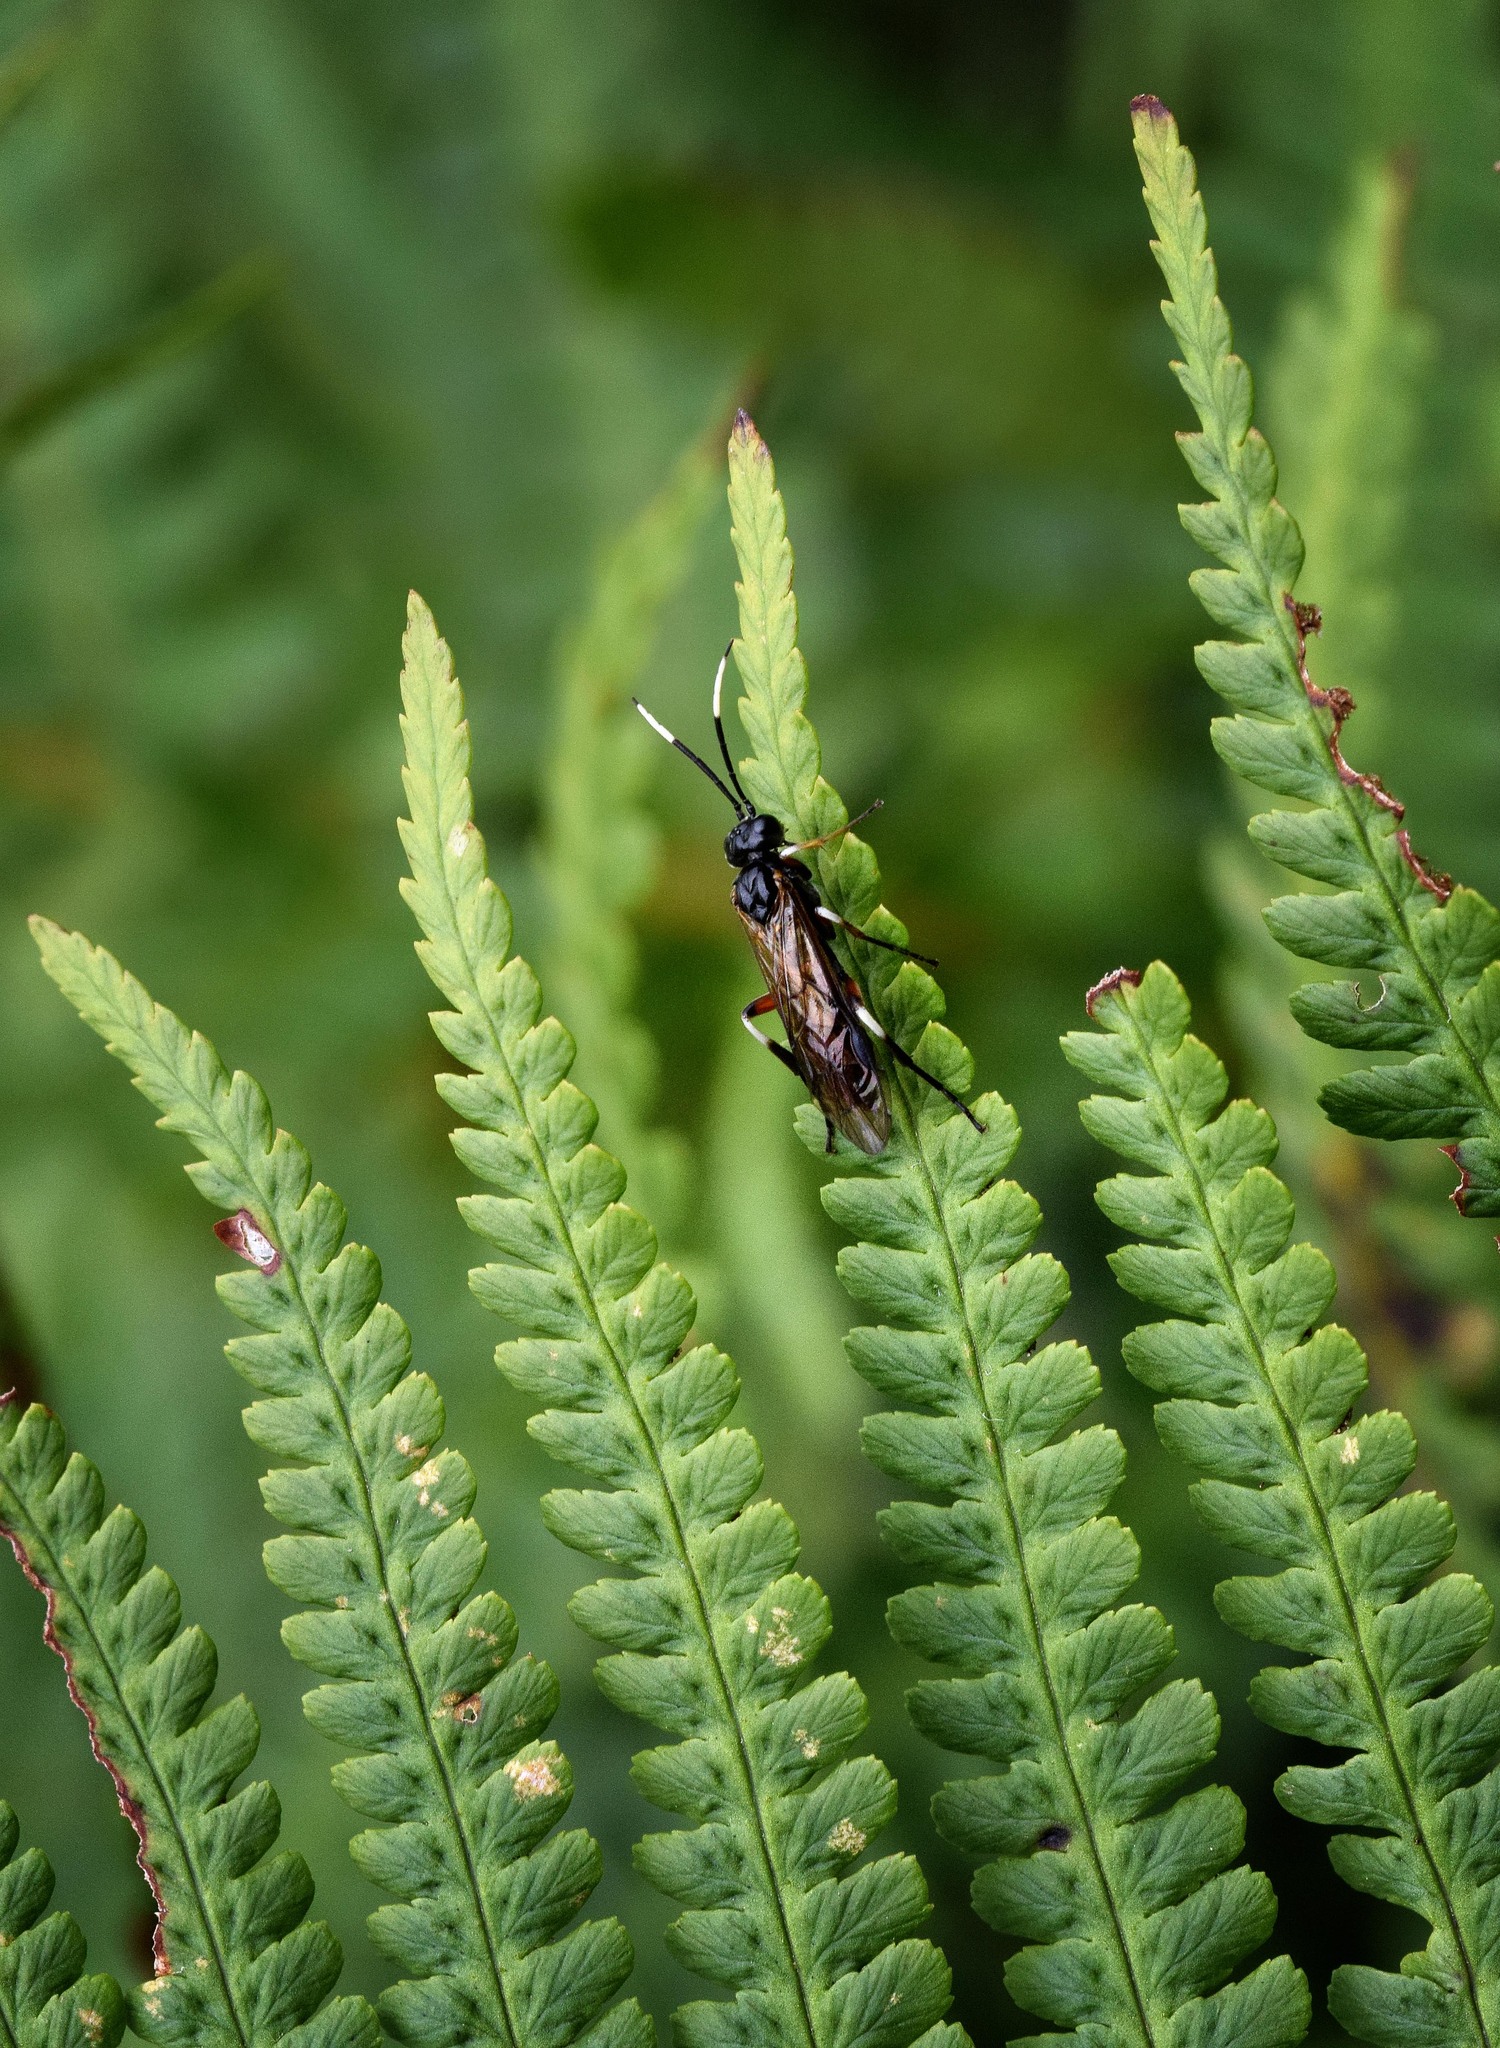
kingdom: Animalia
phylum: Arthropoda
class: Insecta
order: Hymenoptera
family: Tenthredinidae
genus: Apethymus
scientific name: Apethymus serotinus
